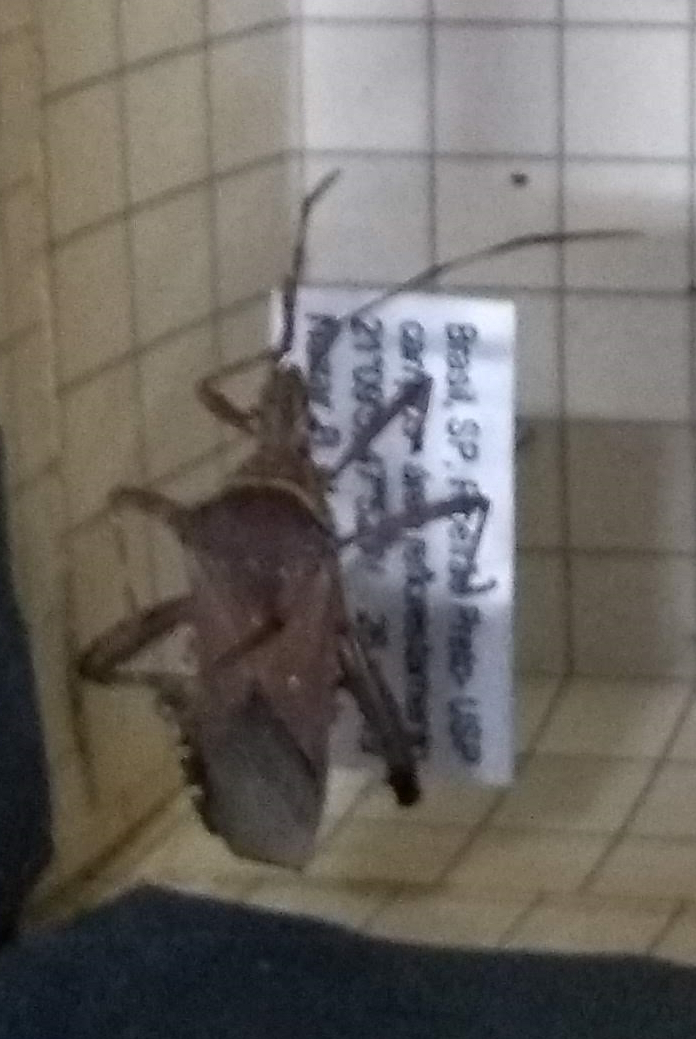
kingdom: Animalia
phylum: Arthropoda
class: Insecta
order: Hemiptera
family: Coreidae
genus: Leptoglossus
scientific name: Leptoglossus gonagra
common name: Citron bug
